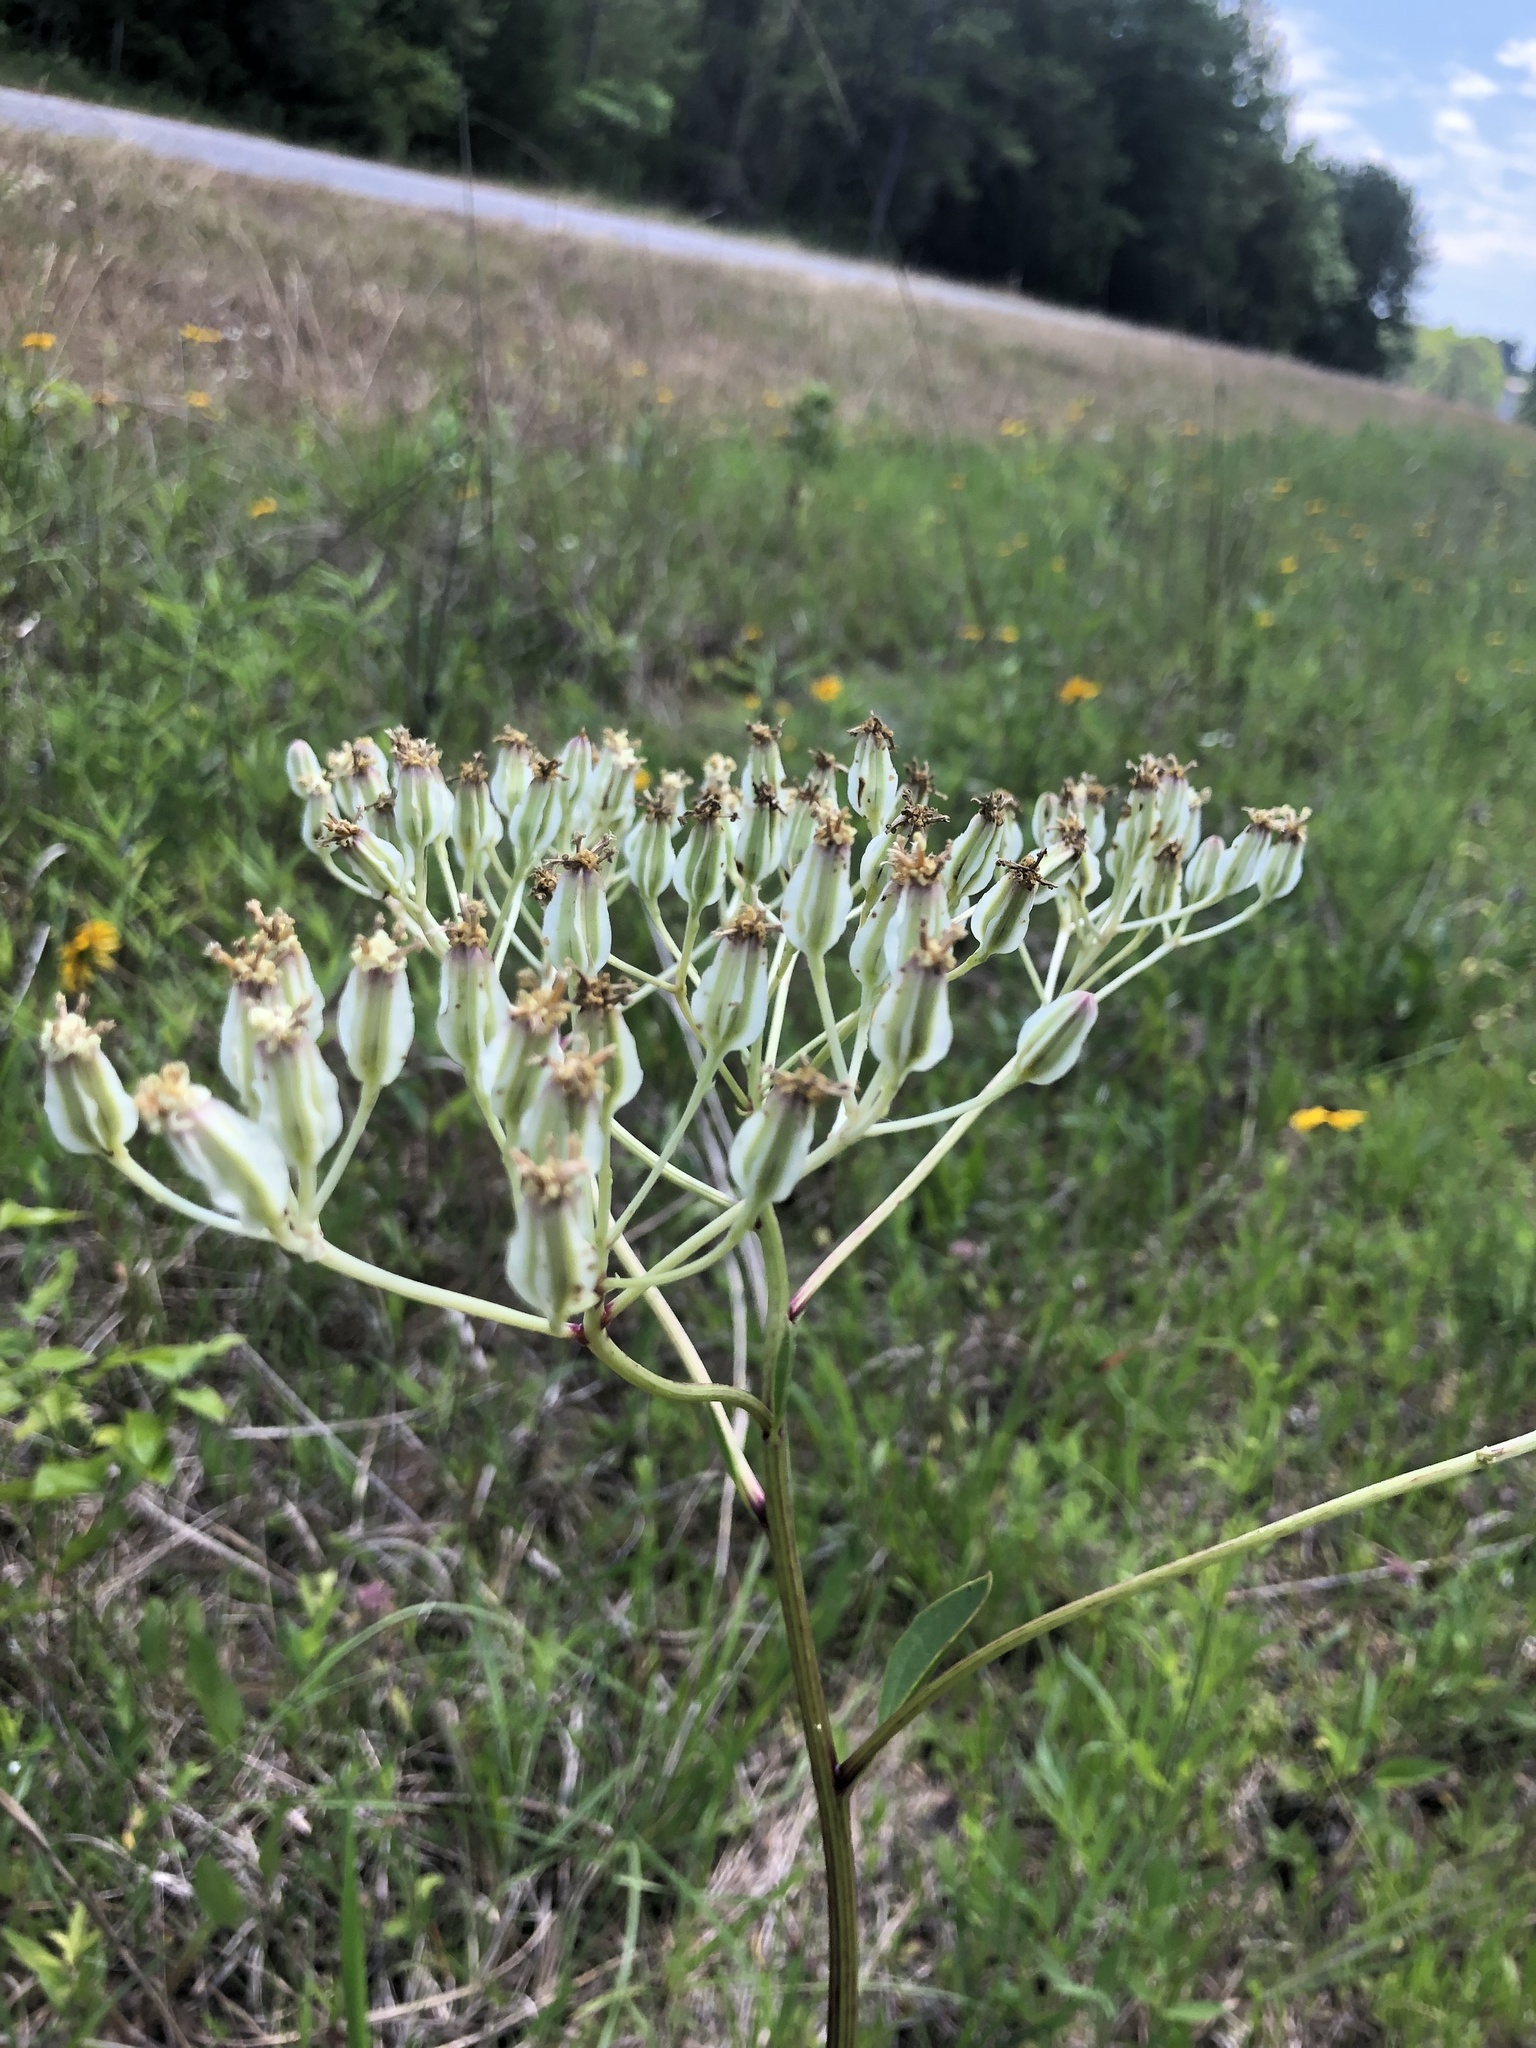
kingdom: Plantae
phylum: Tracheophyta
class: Magnoliopsida
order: Asterales
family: Asteraceae
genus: Arnoglossum
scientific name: Arnoglossum plantagineum
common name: Groove-stemmed indian-plantain
